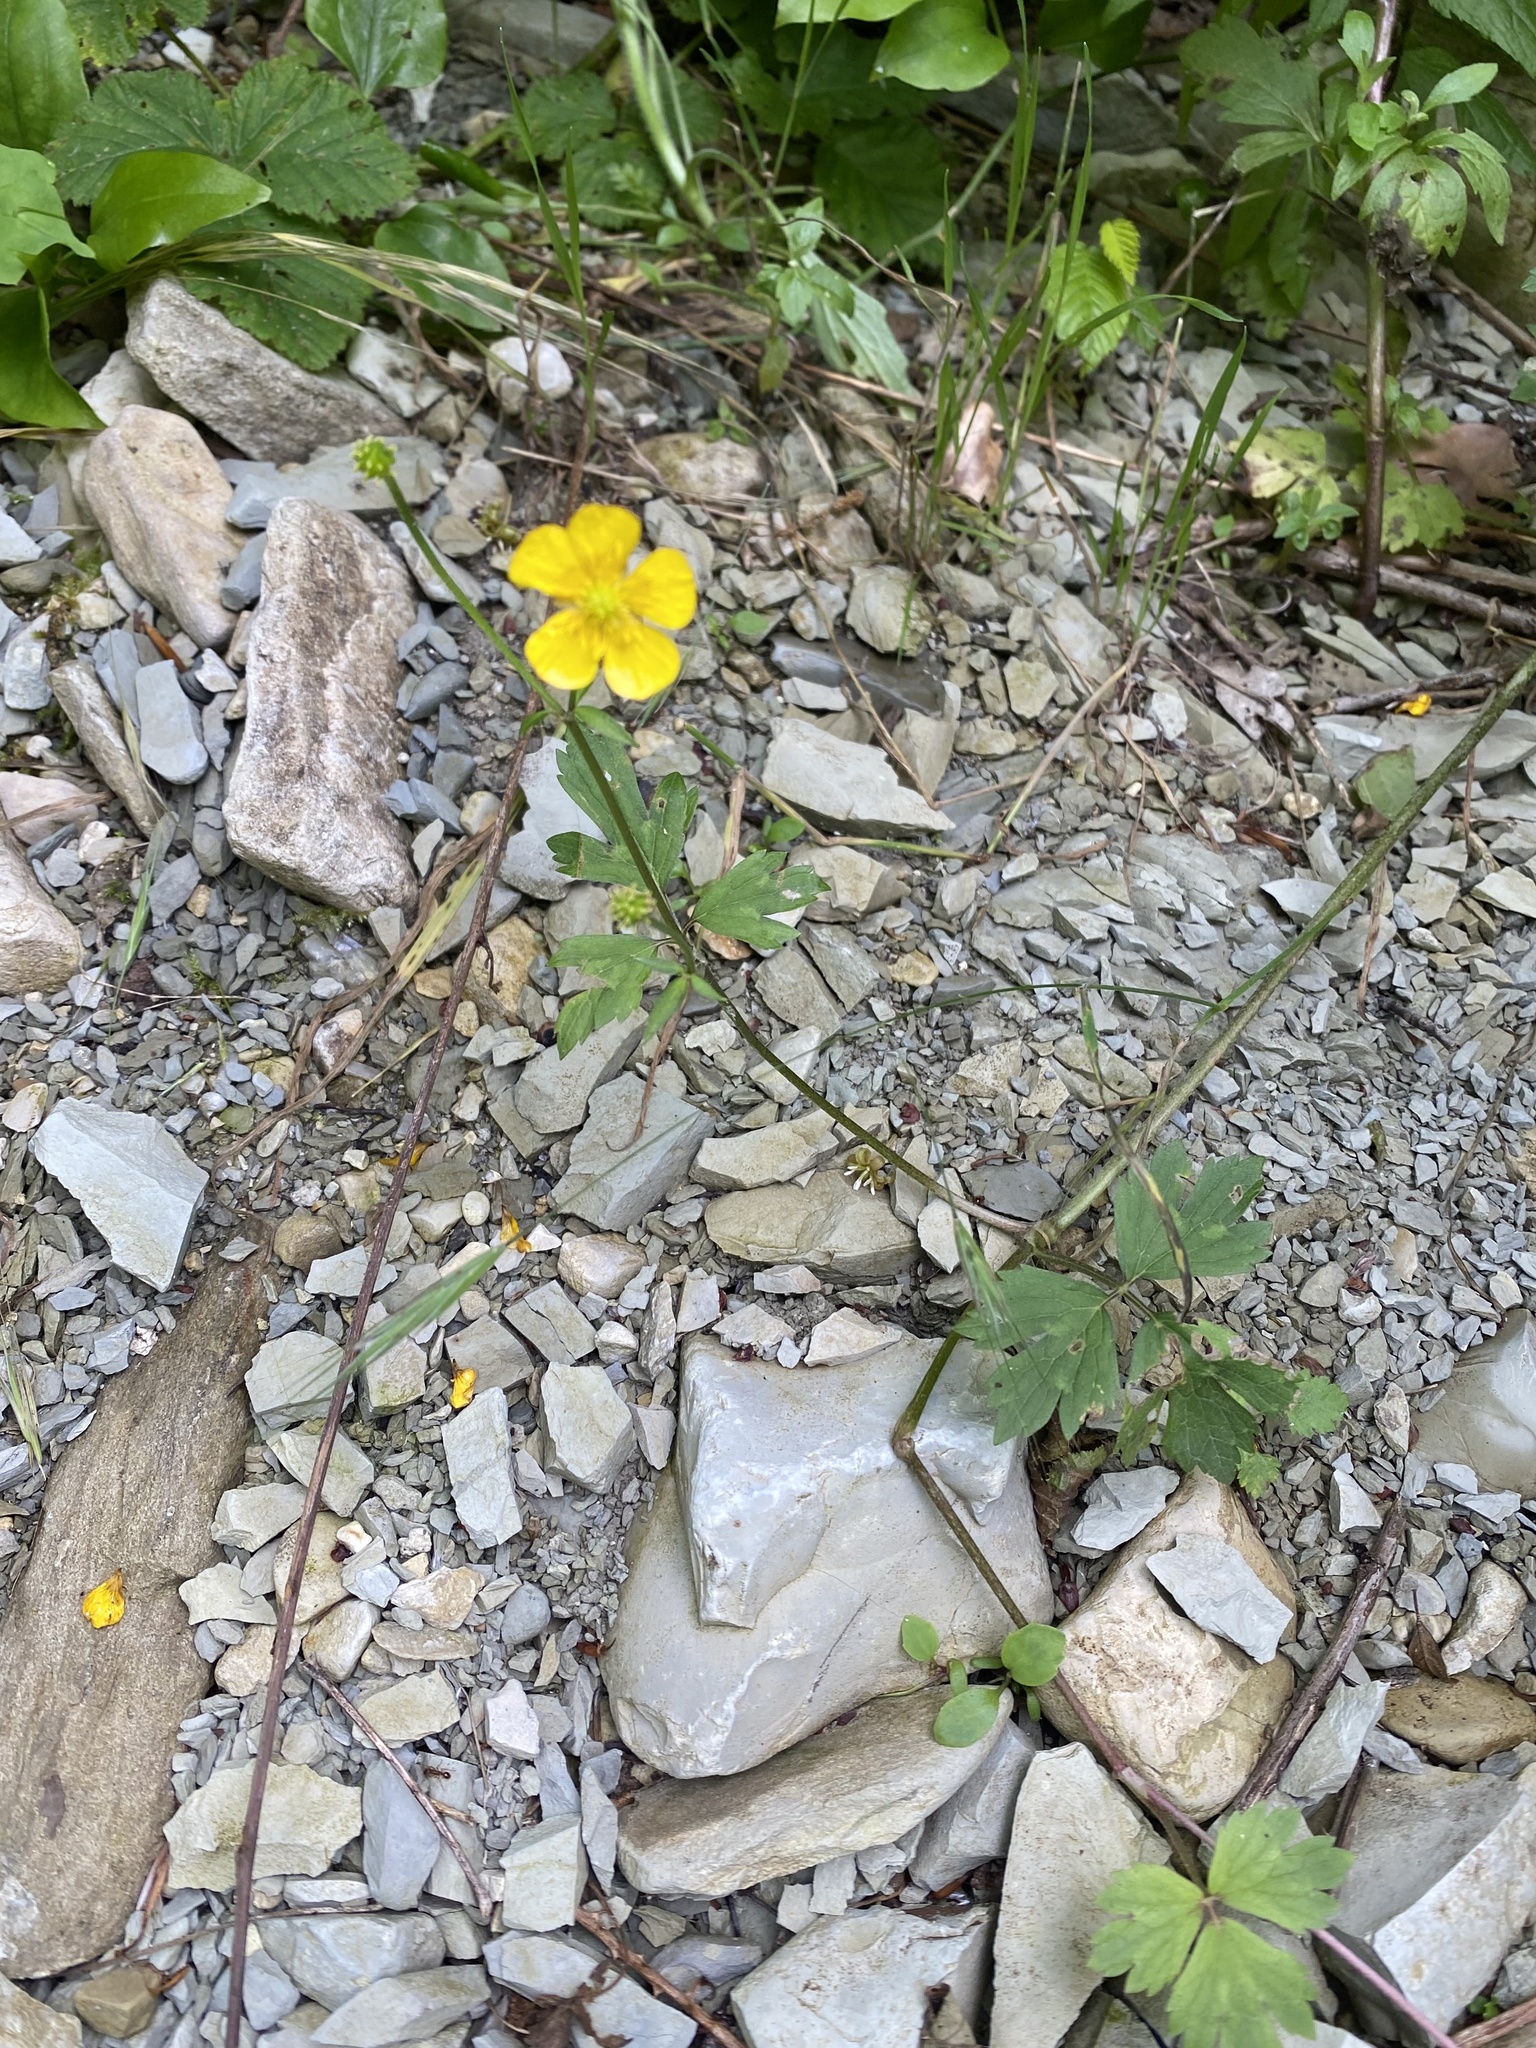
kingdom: Plantae
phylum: Tracheophyta
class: Magnoliopsida
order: Ranunculales
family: Ranunculaceae
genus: Ranunculus
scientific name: Ranunculus repens
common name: Creeping buttercup
